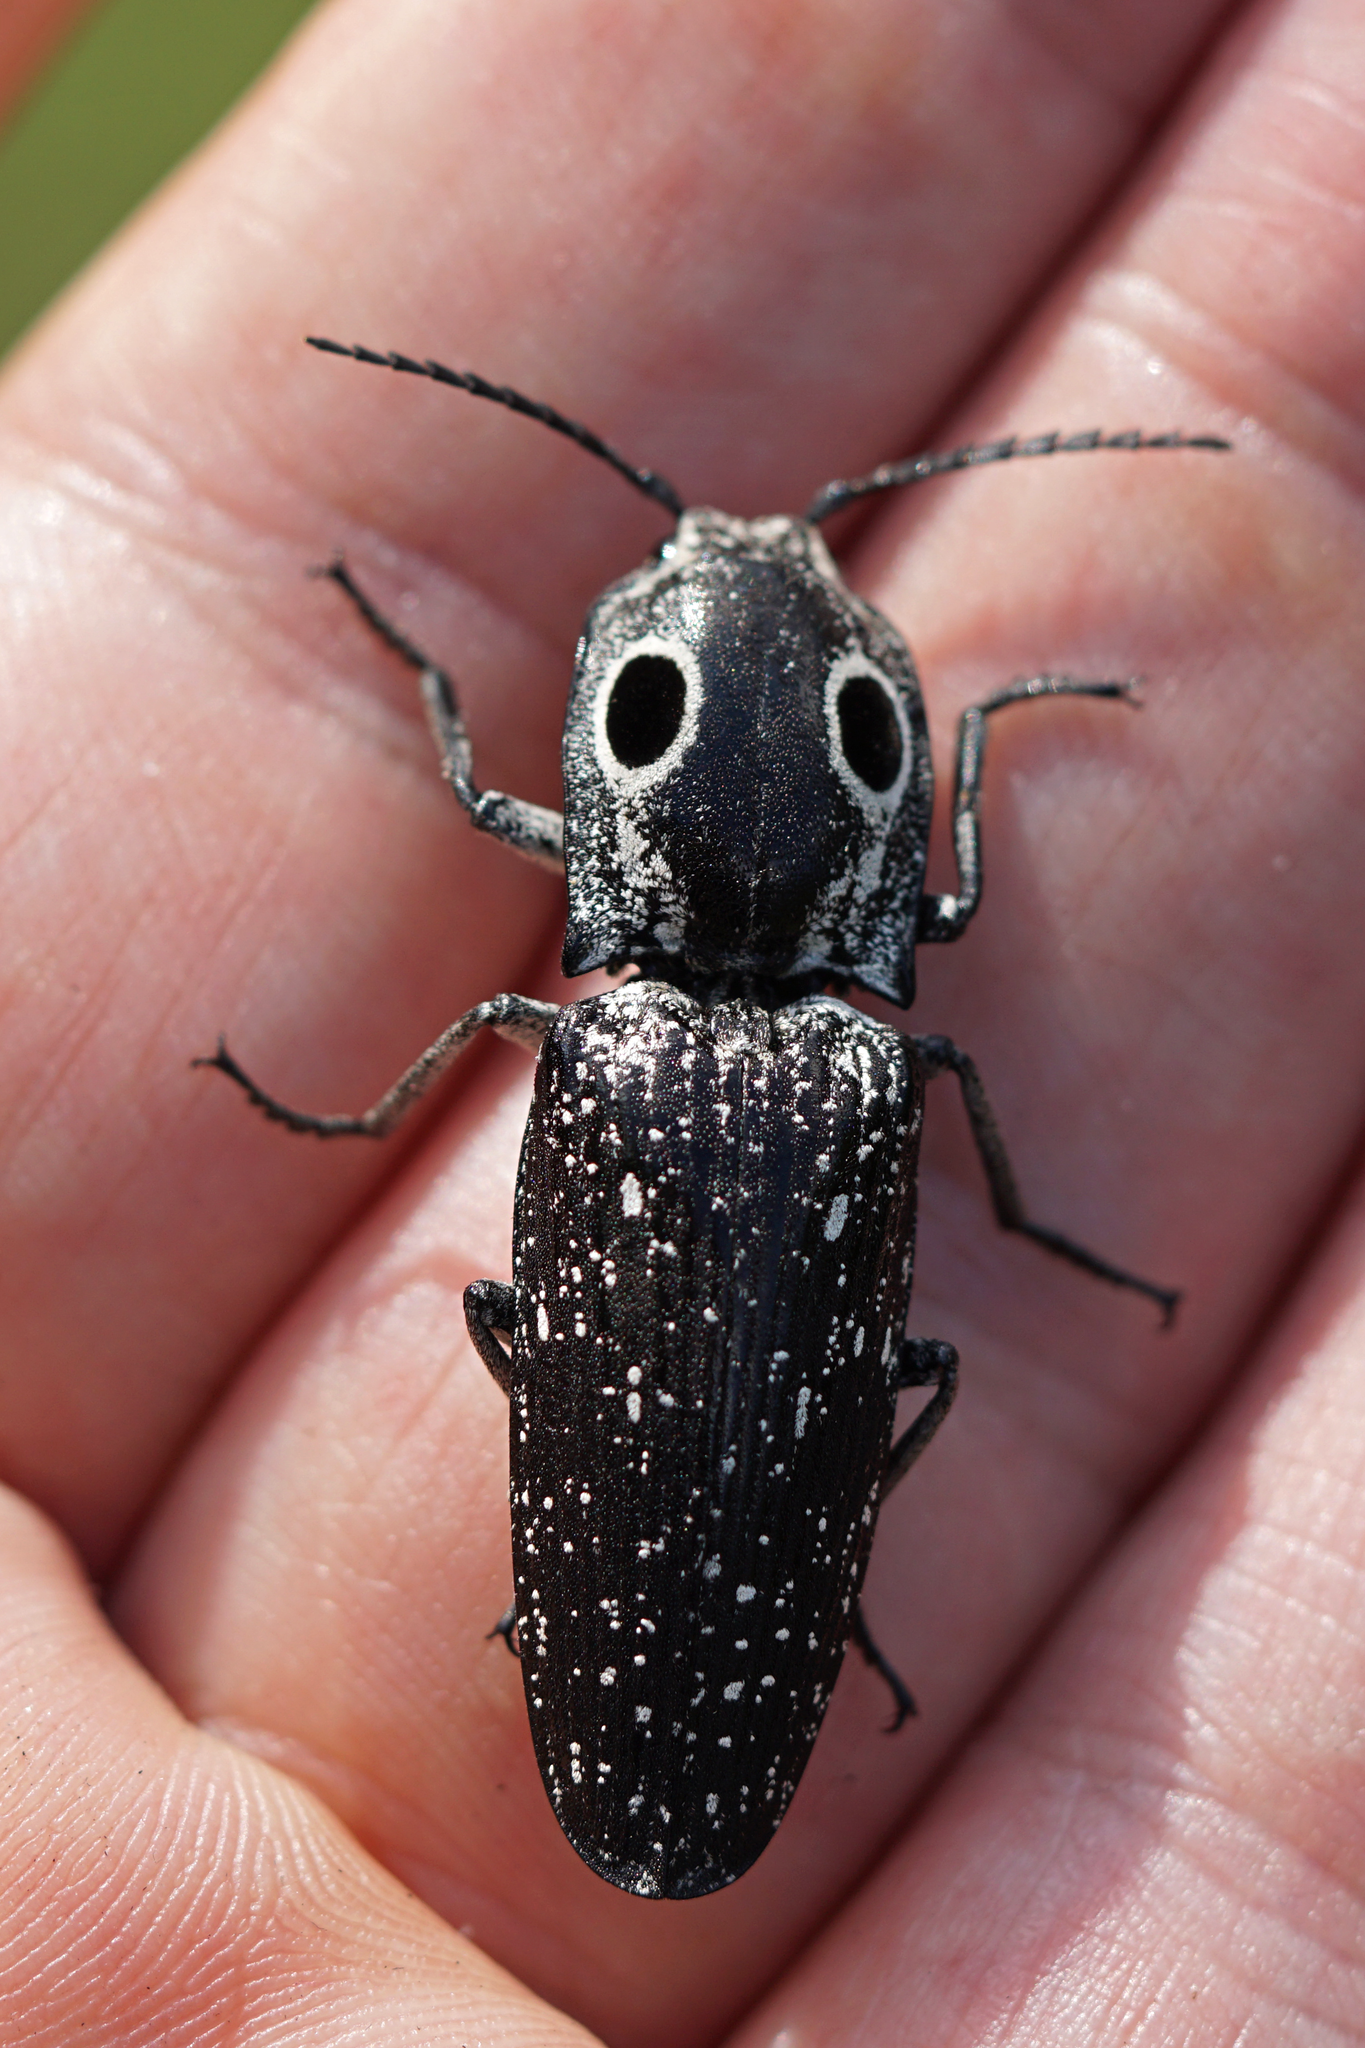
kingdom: Animalia
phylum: Arthropoda
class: Insecta
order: Coleoptera
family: Elateridae
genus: Alaus
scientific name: Alaus oculatus
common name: Eastern eyed click beetle
